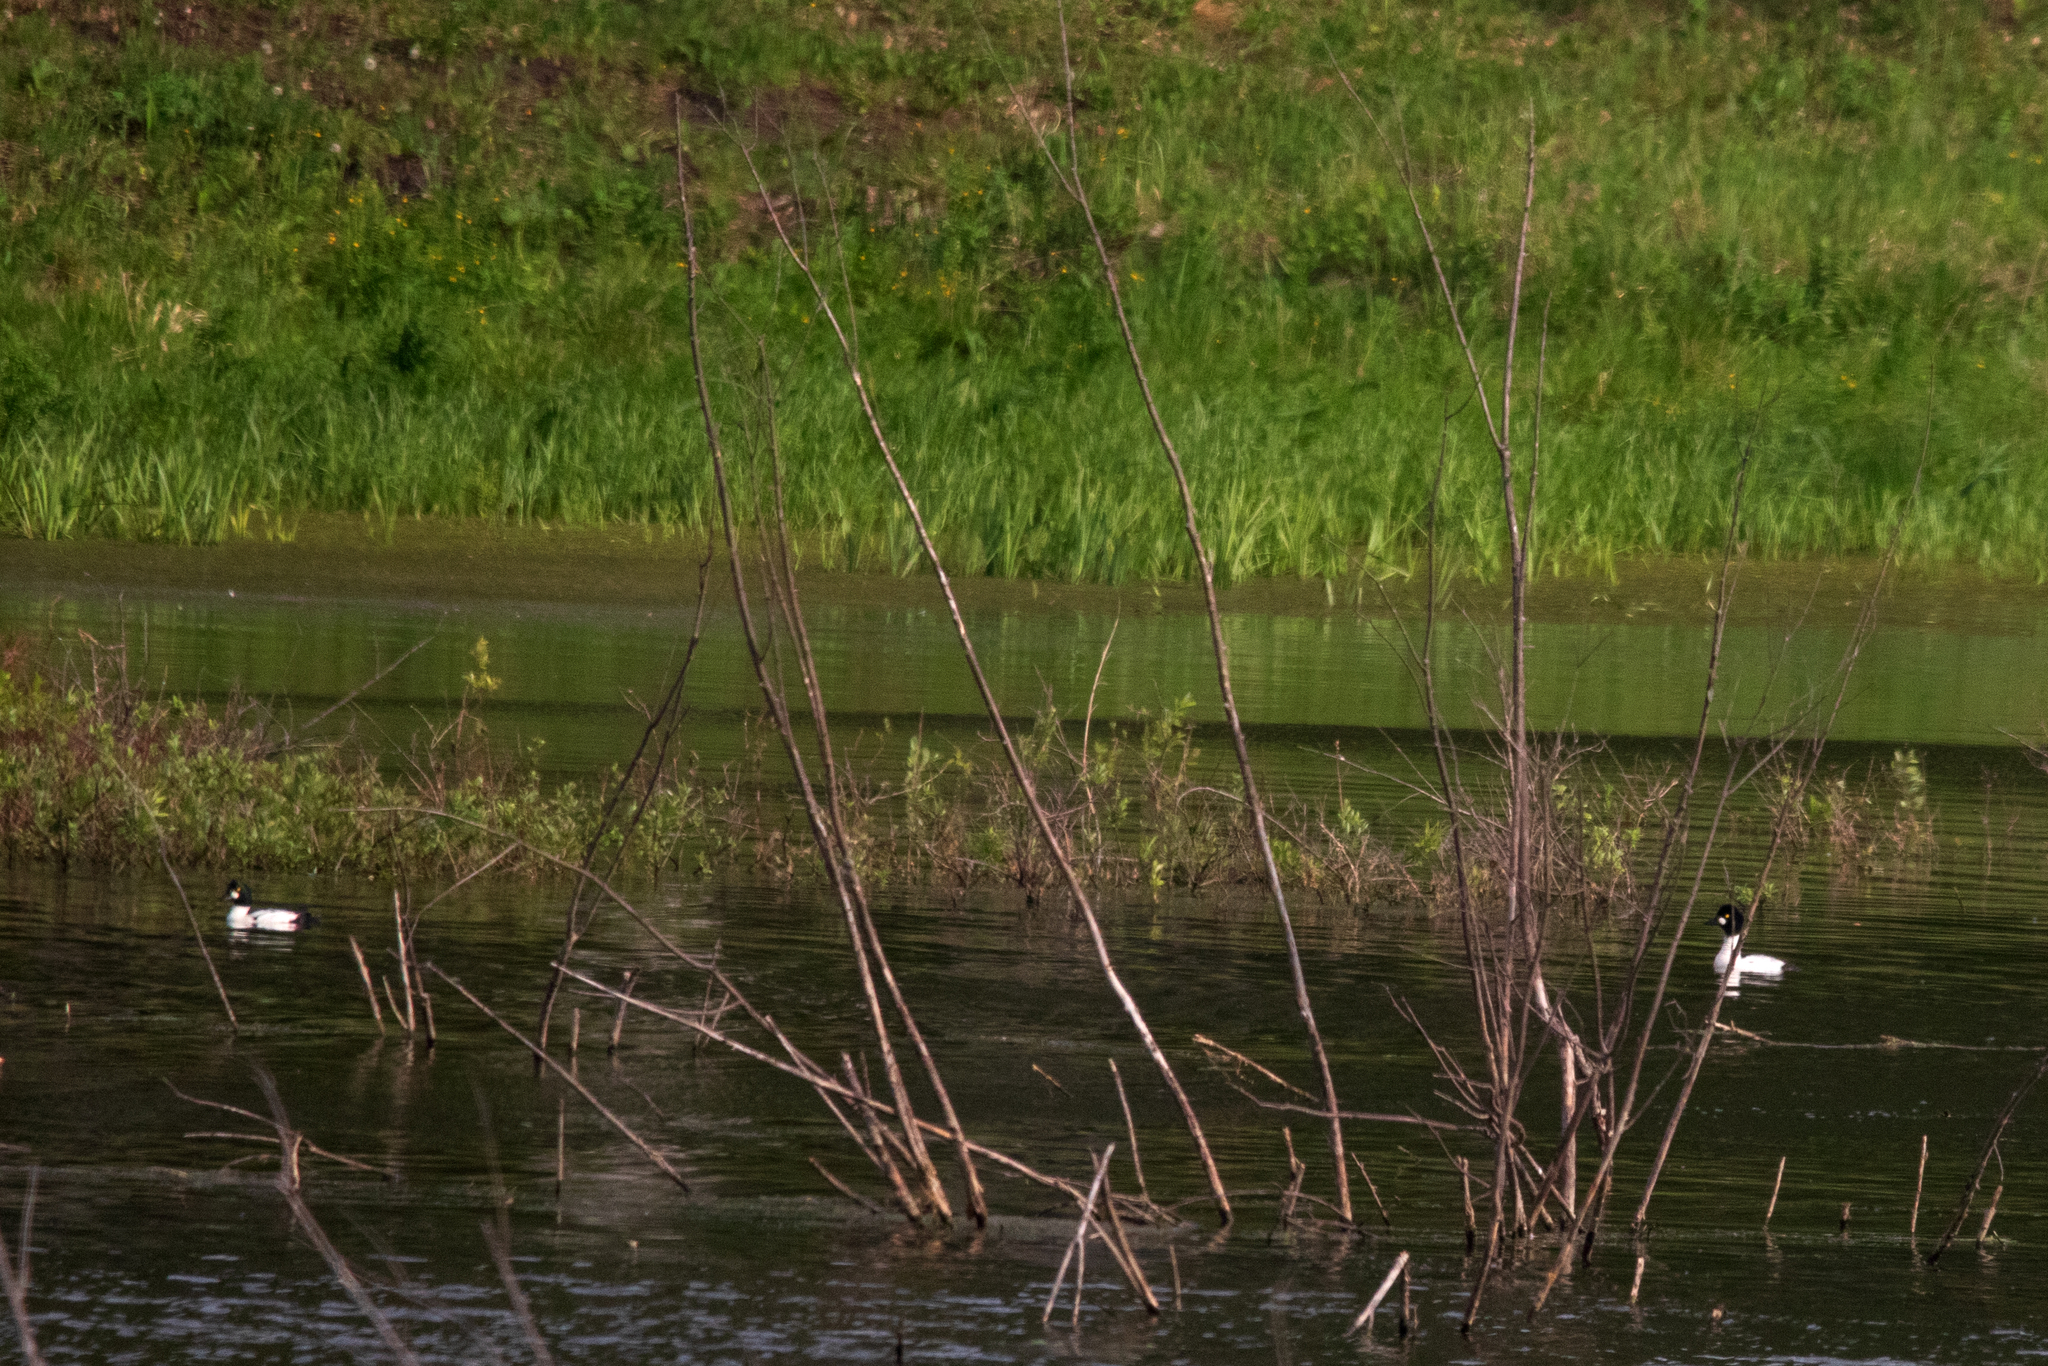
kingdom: Animalia
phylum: Chordata
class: Aves
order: Anseriformes
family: Anatidae
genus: Bucephala
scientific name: Bucephala clangula
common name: Common goldeneye
